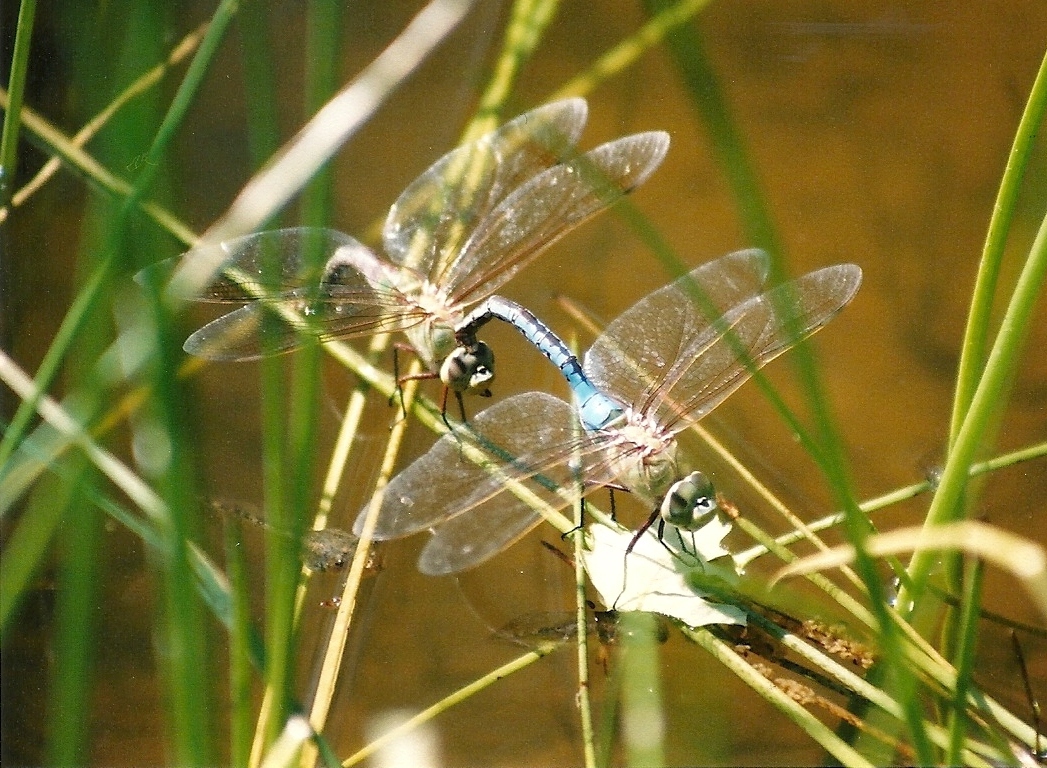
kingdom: Animalia
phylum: Arthropoda
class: Insecta
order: Odonata
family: Aeshnidae
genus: Anax
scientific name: Anax junius
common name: Common green darner
